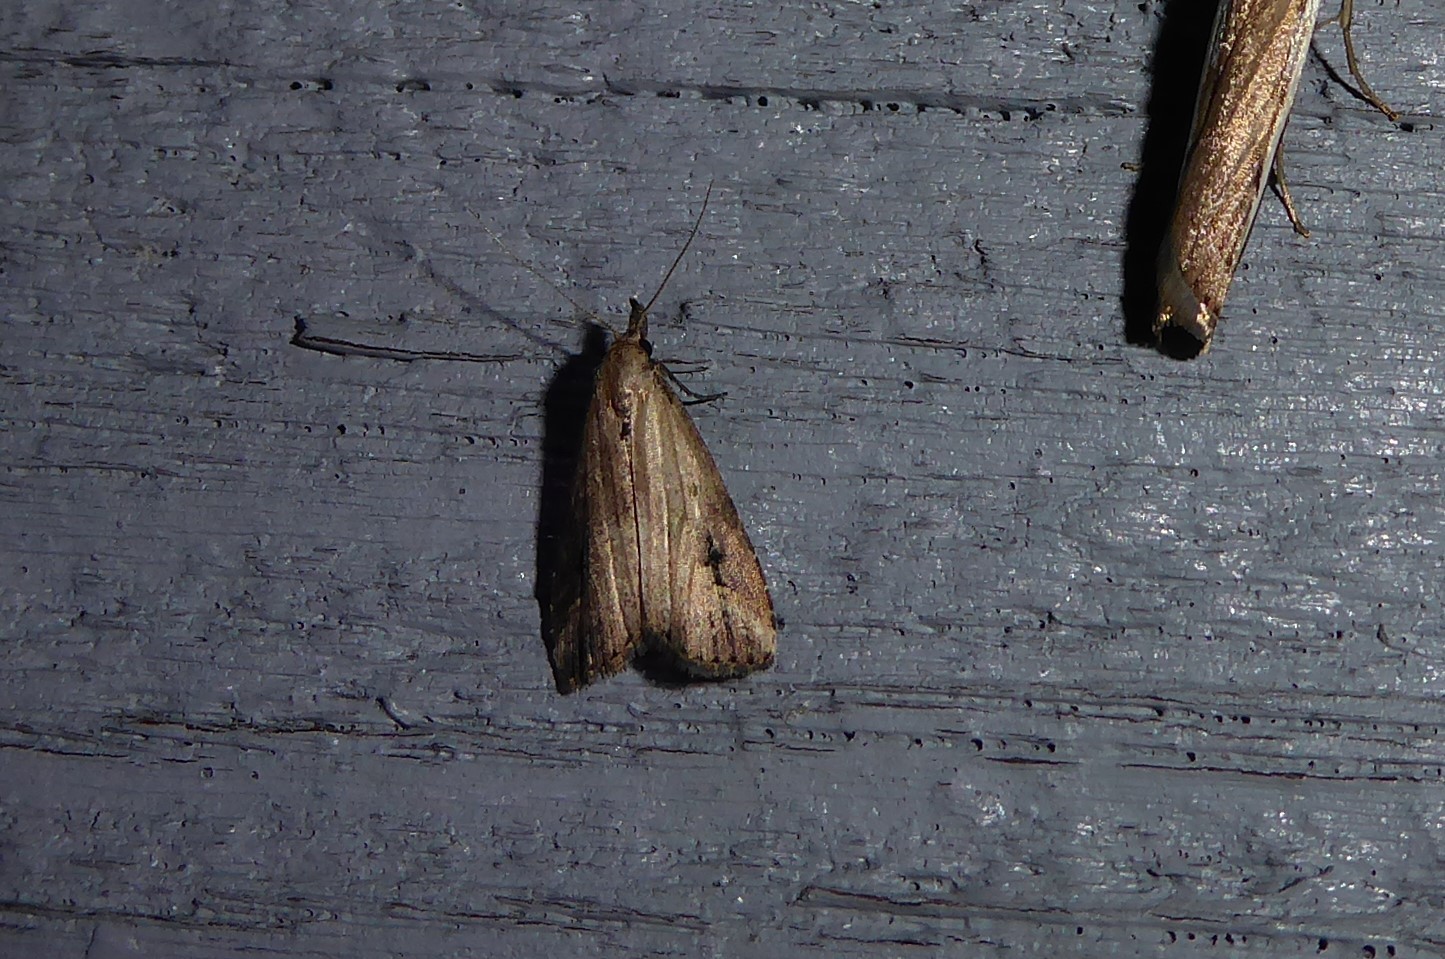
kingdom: Animalia
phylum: Arthropoda
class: Insecta
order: Lepidoptera
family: Erebidae
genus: Schrankia
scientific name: Schrankia costaestrigalis
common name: Pinion-streaked snout
